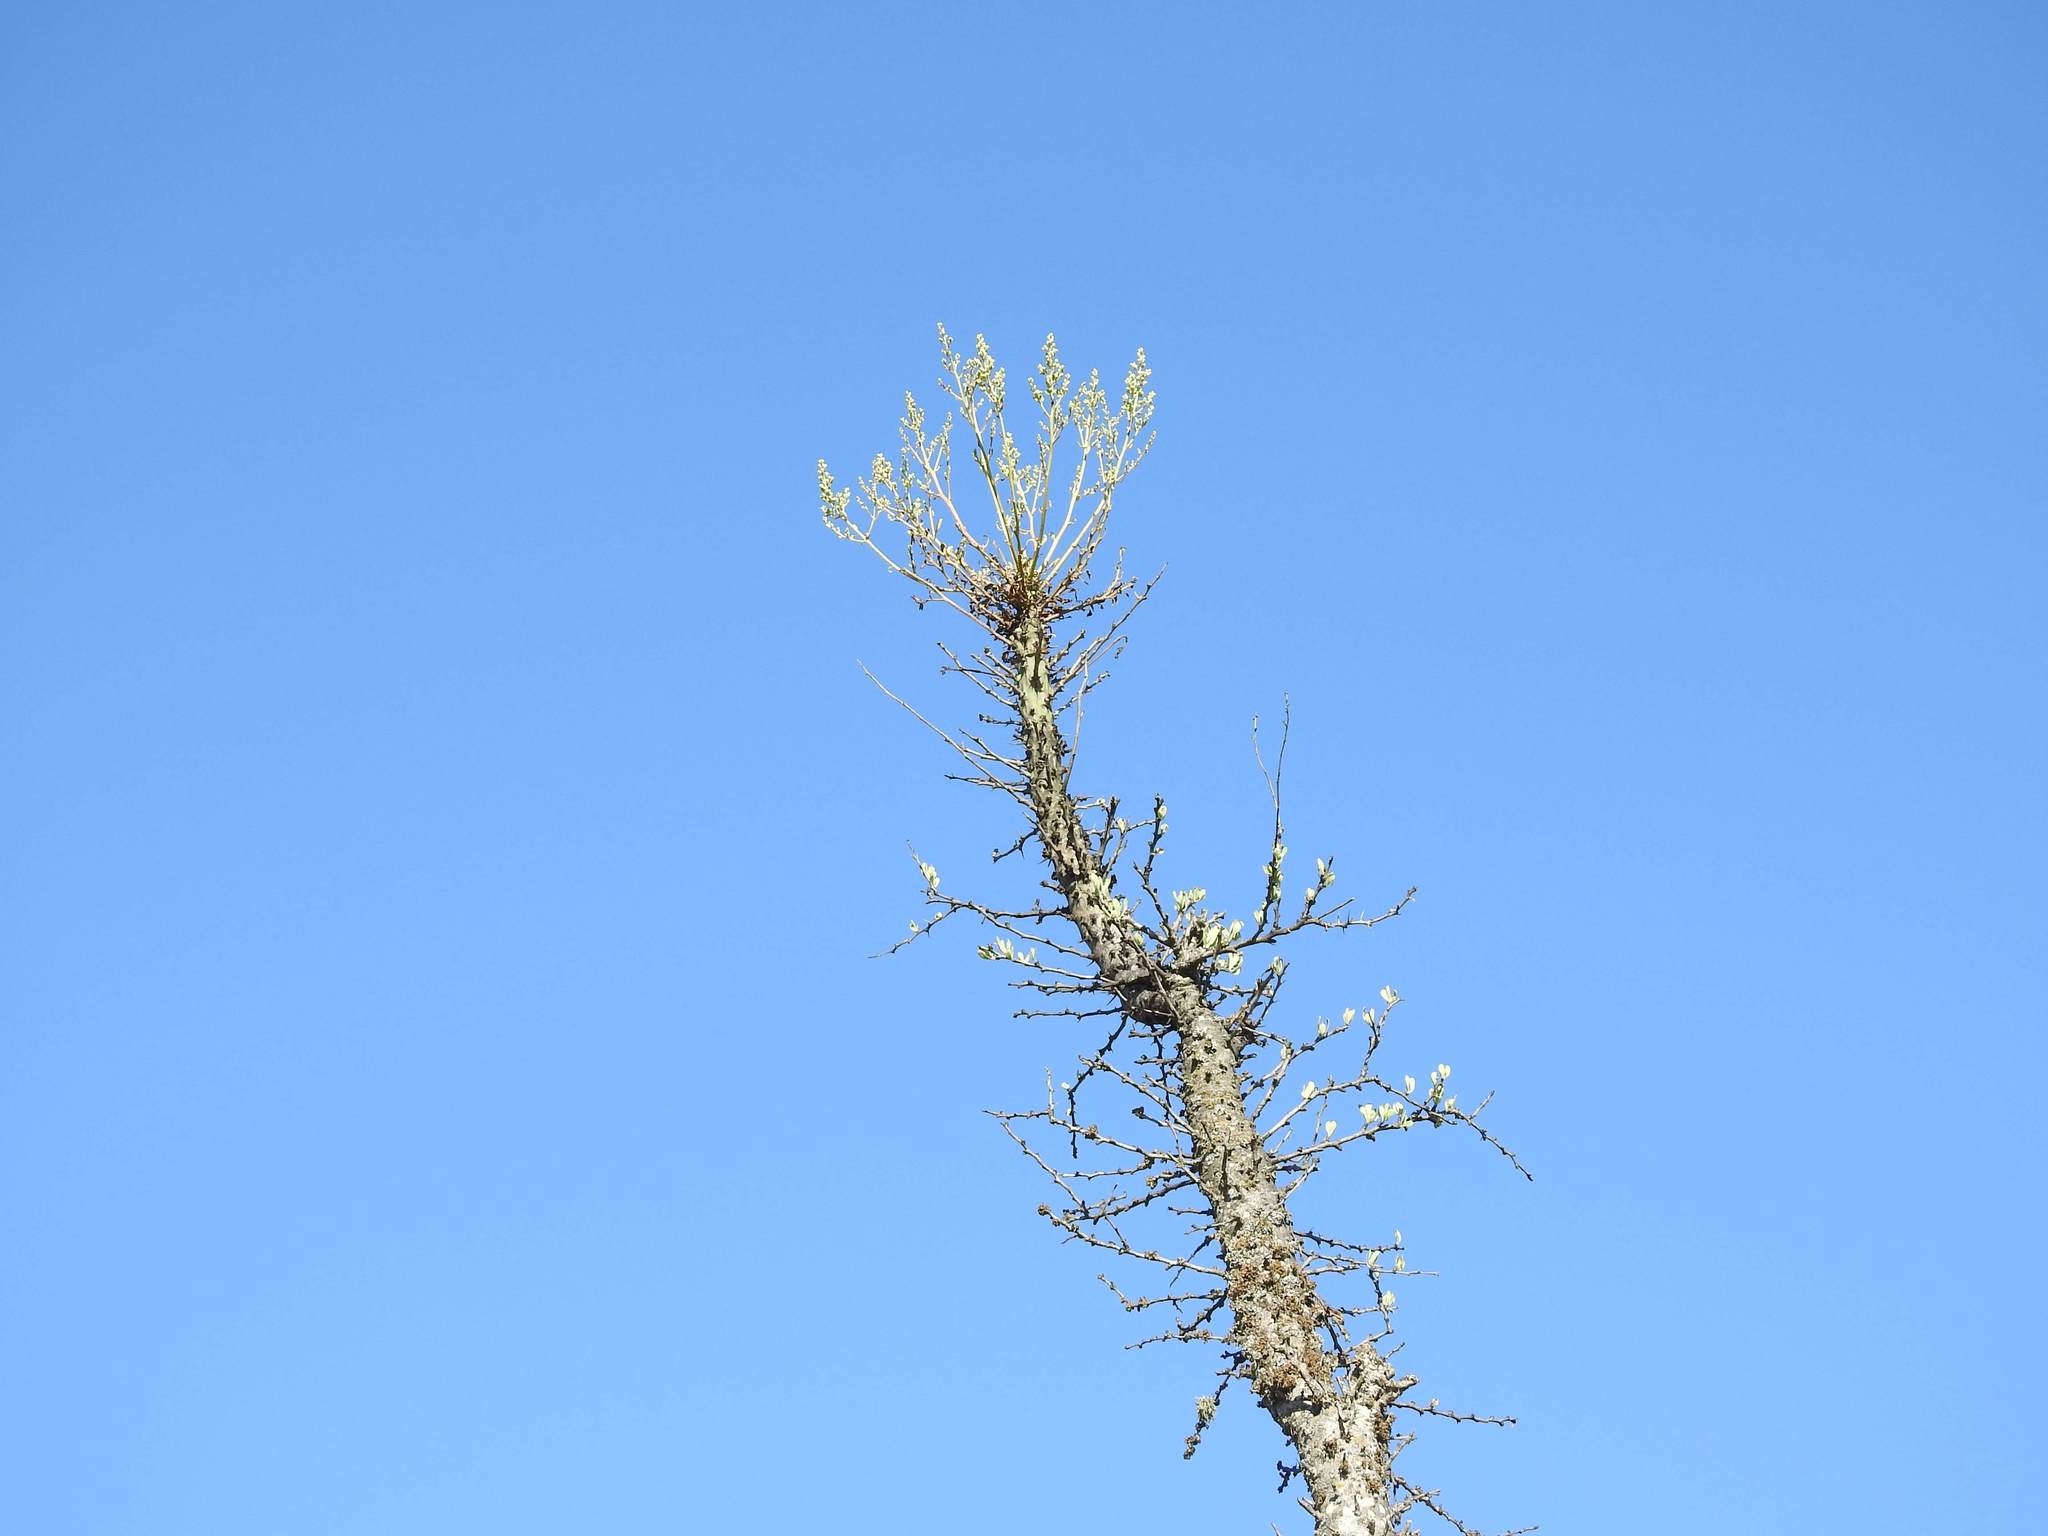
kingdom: Plantae
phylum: Tracheophyta
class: Magnoliopsida
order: Ericales
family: Fouquieriaceae
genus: Fouquieria
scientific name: Fouquieria columnaris
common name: Boojumtree
